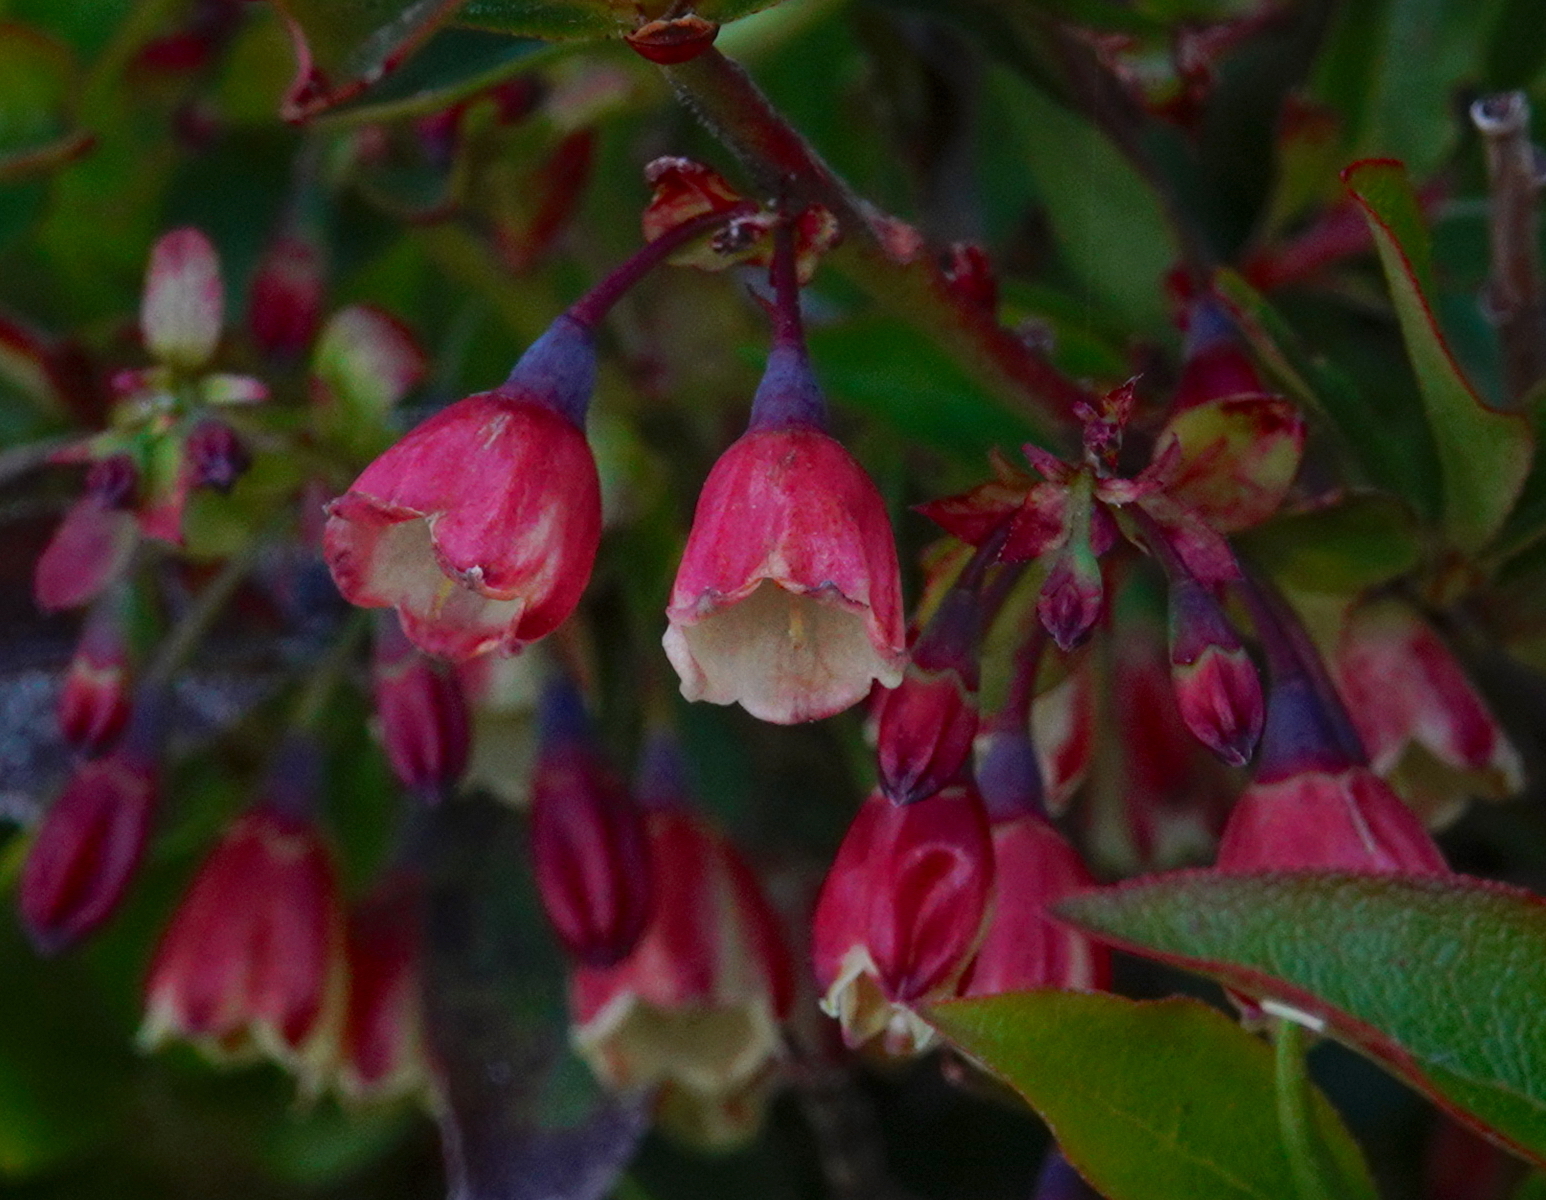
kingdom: Plantae
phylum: Tracheophyta
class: Magnoliopsida
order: Ericales
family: Ericaceae
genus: Vaccinium
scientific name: Vaccinium padifolium
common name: Madeiran blueberry
